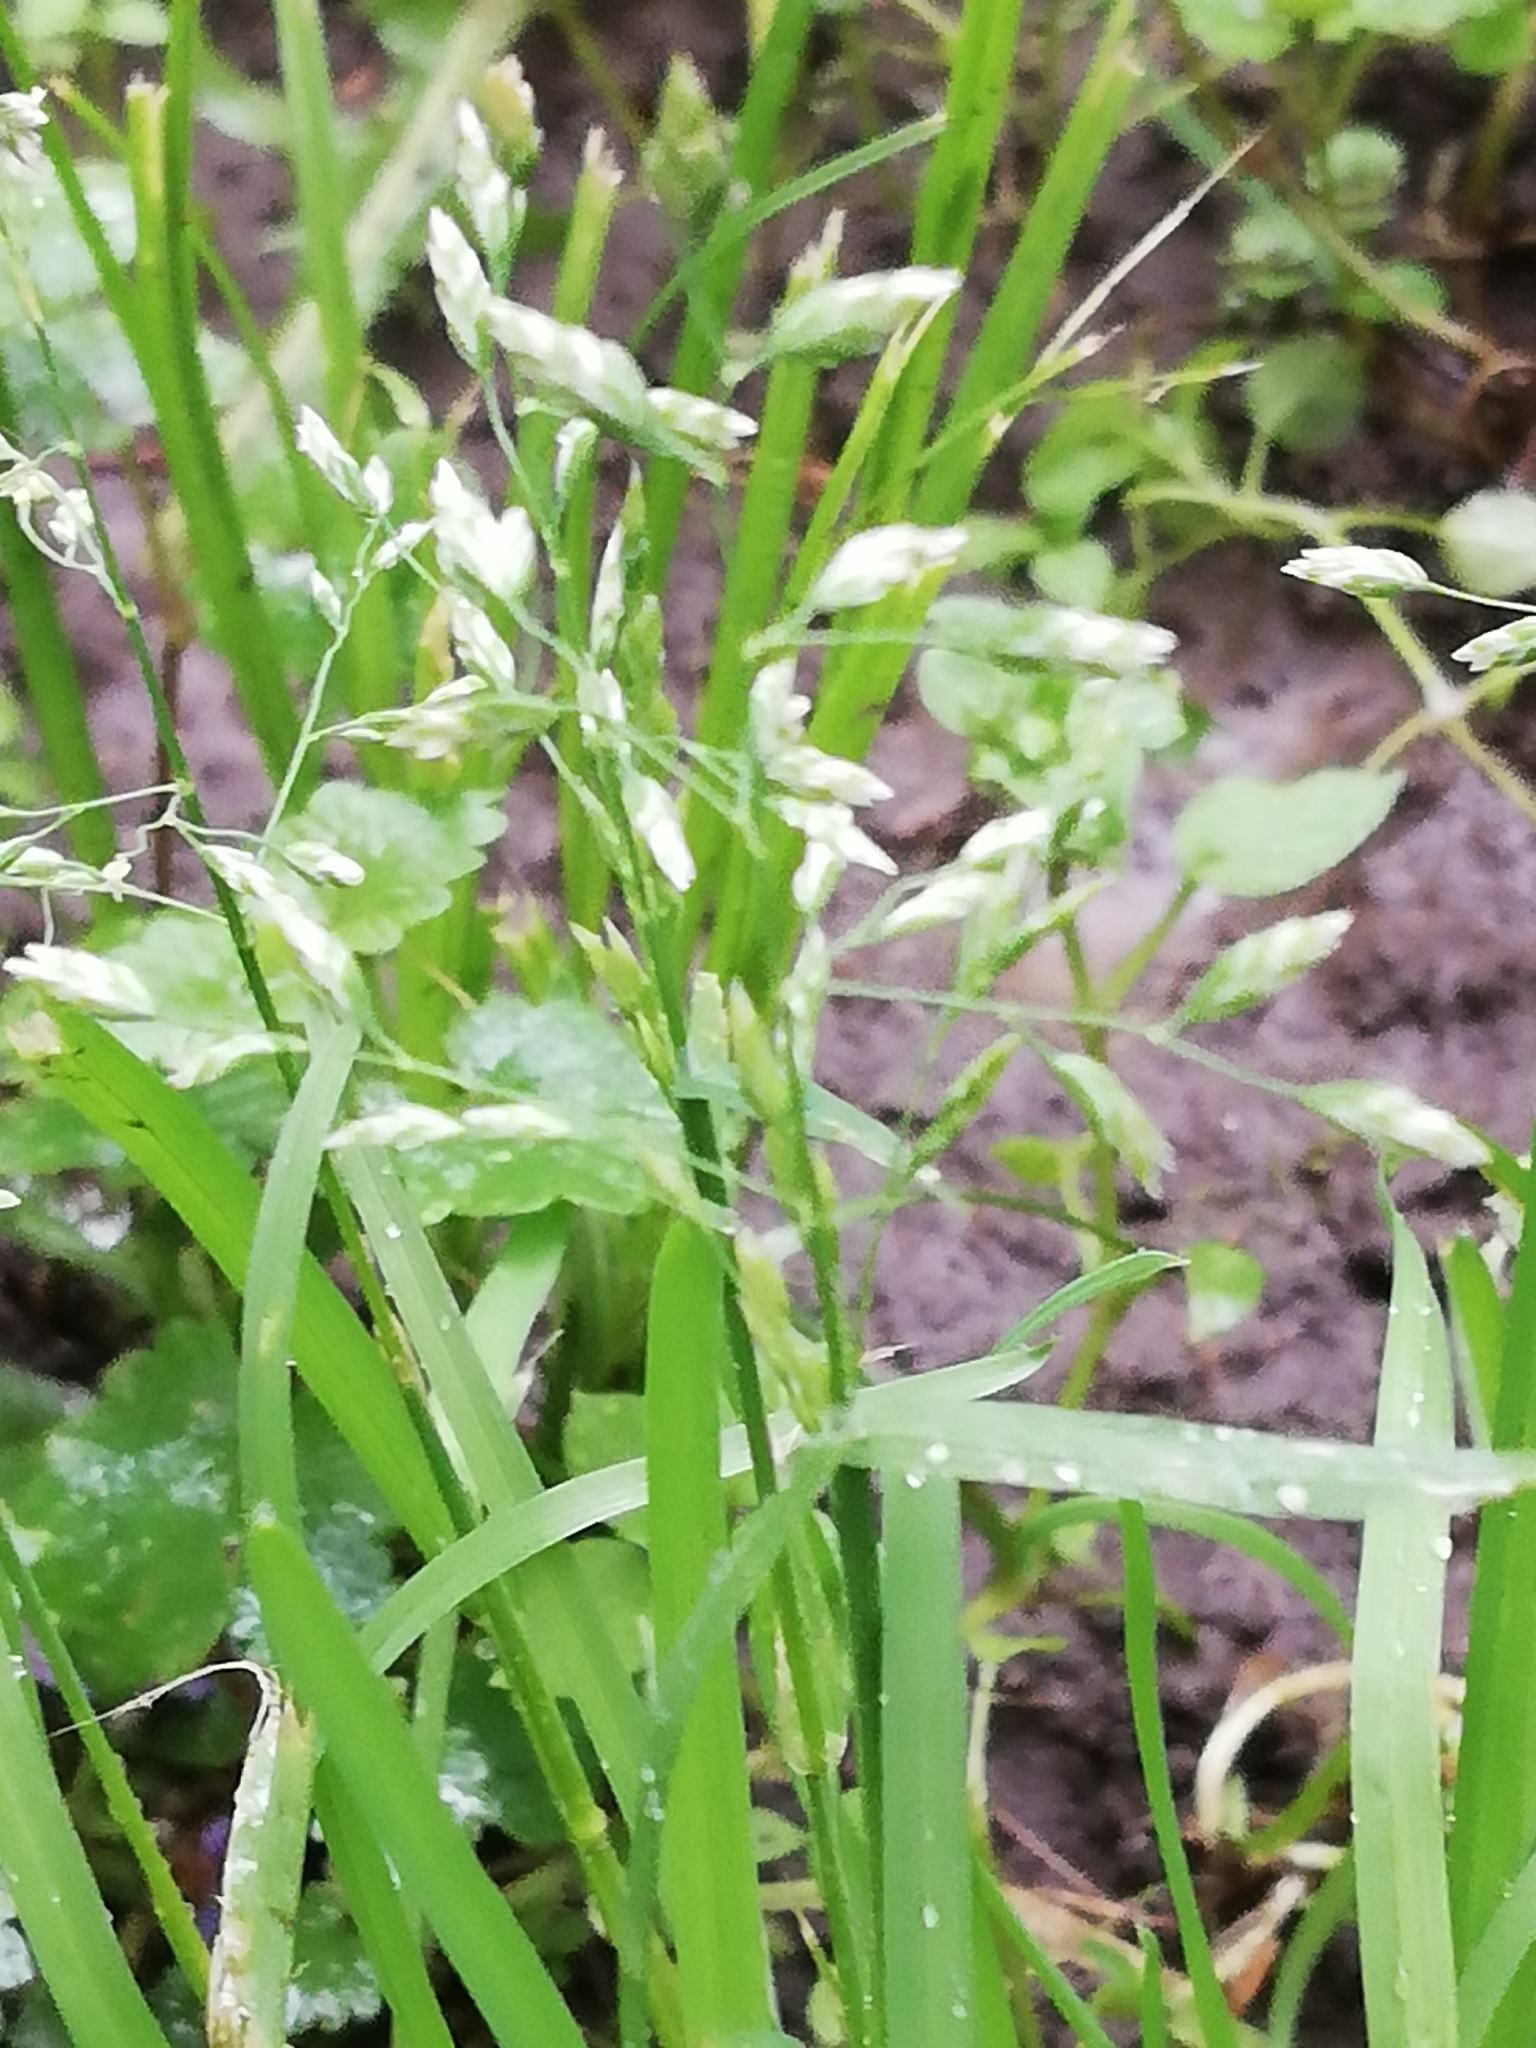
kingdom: Plantae
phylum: Tracheophyta
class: Liliopsida
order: Poales
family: Poaceae
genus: Poa
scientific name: Poa annua
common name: Annual bluegrass
